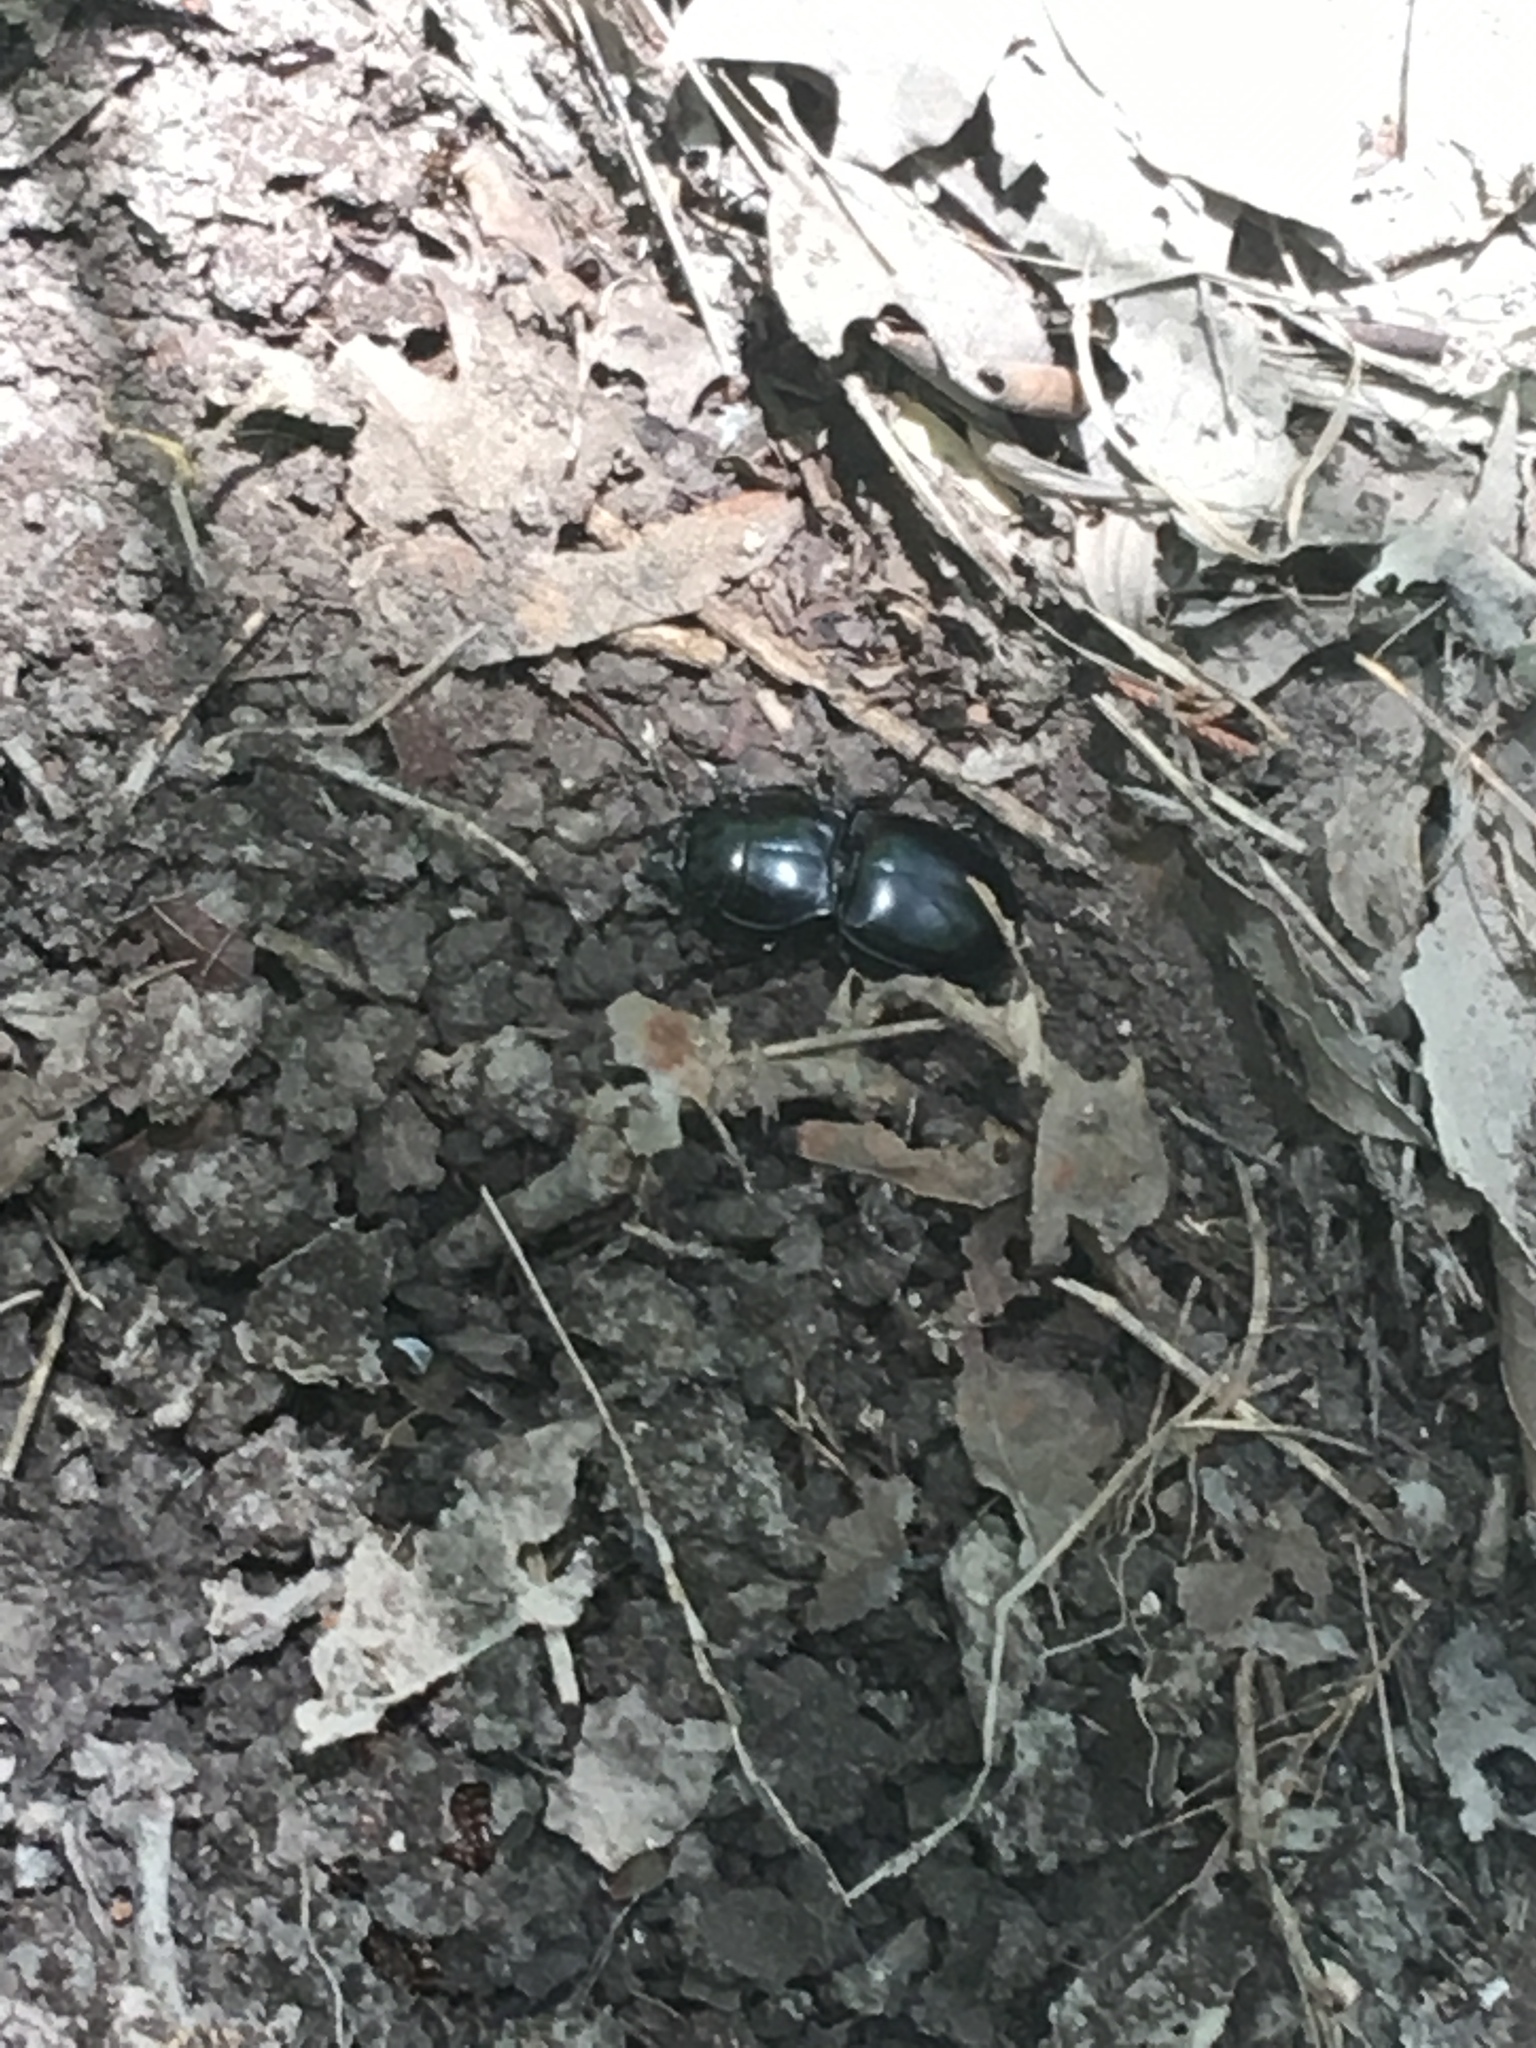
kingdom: Animalia
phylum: Arthropoda
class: Insecta
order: Coleoptera
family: Carabidae
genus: Pasimachus
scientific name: Pasimachus californicus
